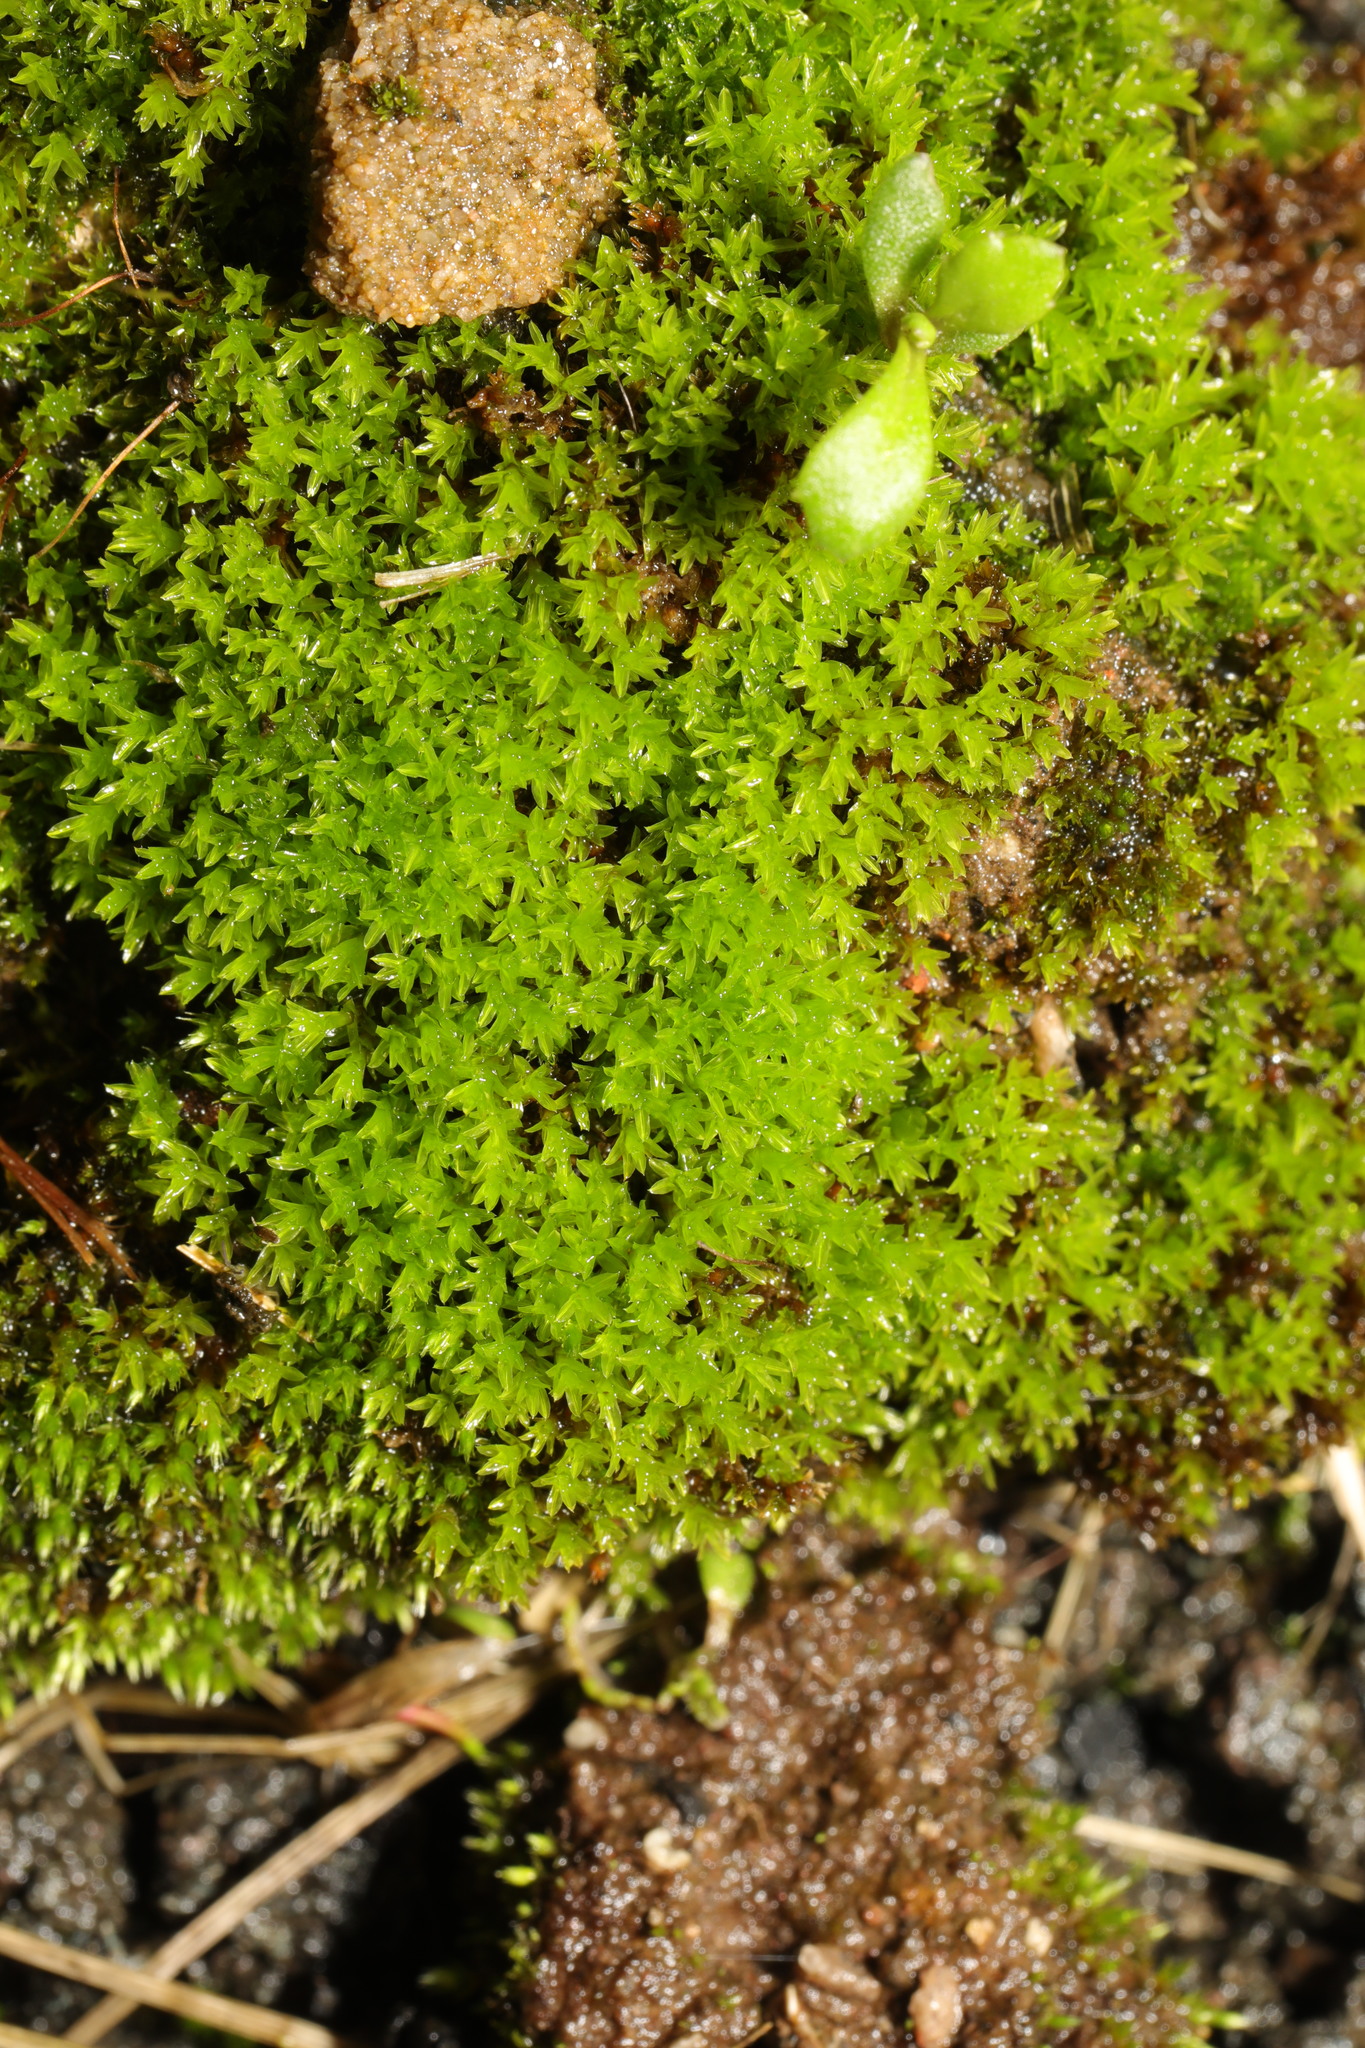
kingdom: Plantae
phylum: Bryophyta
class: Bryopsida
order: Pottiales
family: Pottiaceae
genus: Syntrichia
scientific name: Syntrichia ruralis
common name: Sidewalk screw moss
